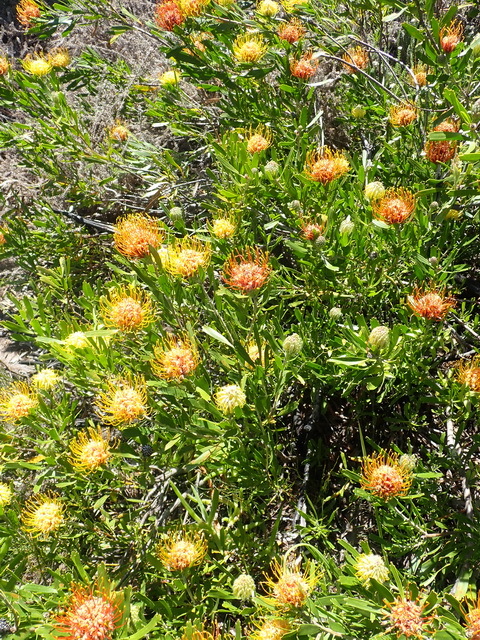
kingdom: Plantae
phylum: Tracheophyta
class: Magnoliopsida
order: Proteales
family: Proteaceae
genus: Leucospermum
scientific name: Leucospermum cuneiforme
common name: Common pincushion
